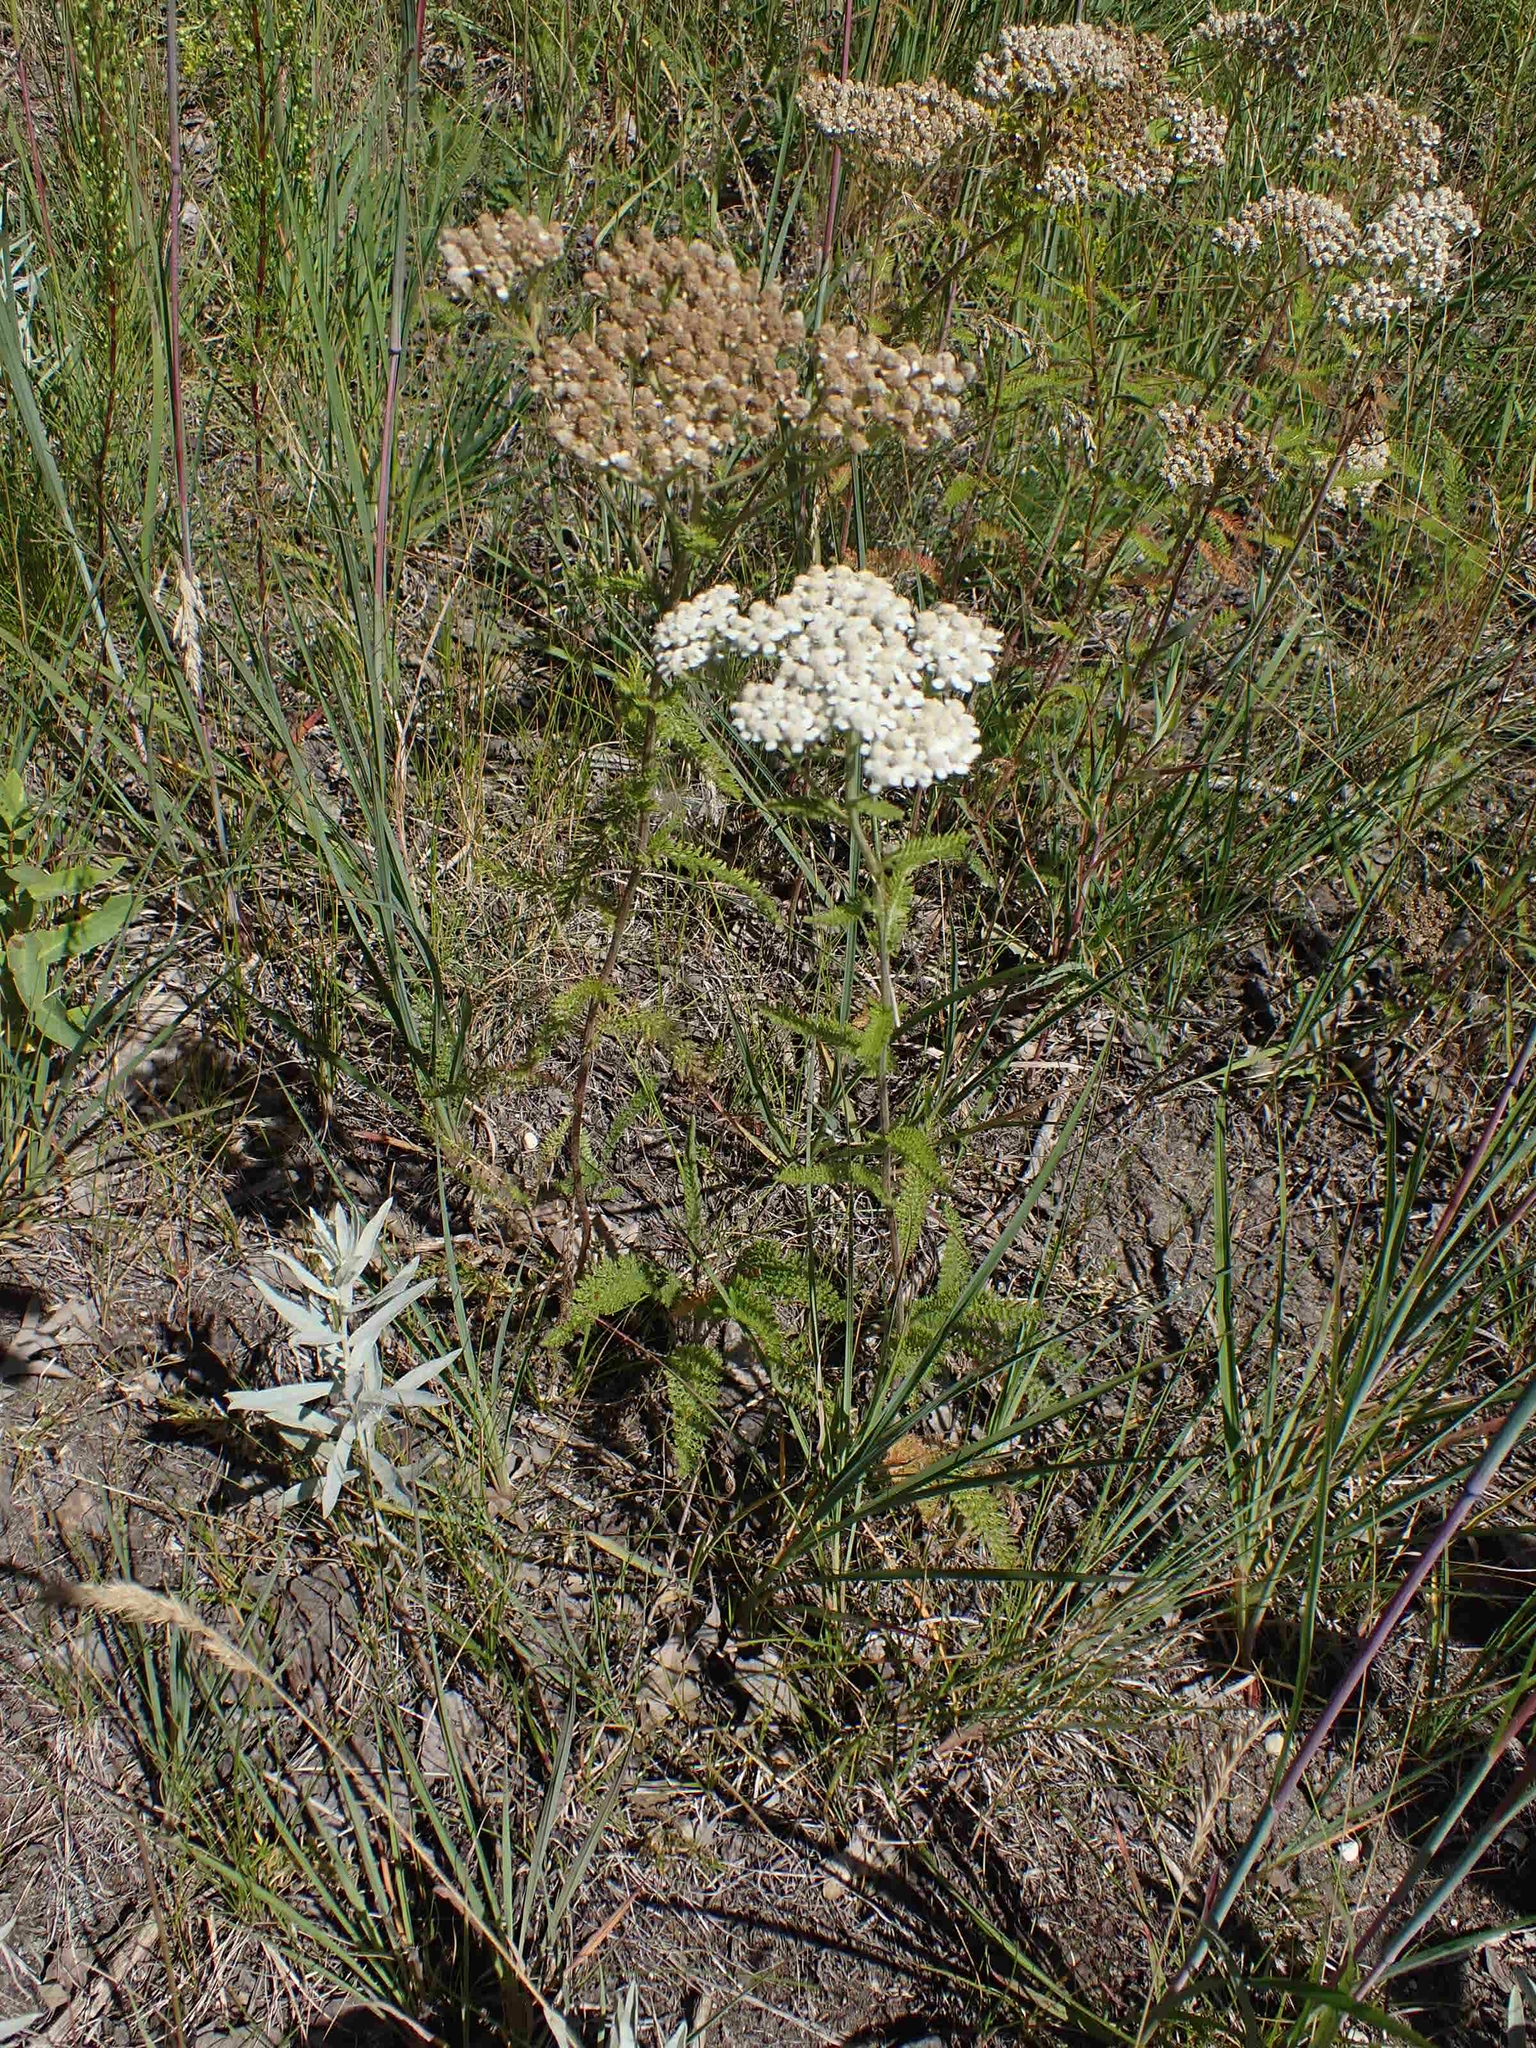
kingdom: Plantae
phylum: Tracheophyta
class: Magnoliopsida
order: Asterales
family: Asteraceae
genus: Achillea
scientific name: Achillea millefolium
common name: Yarrow
